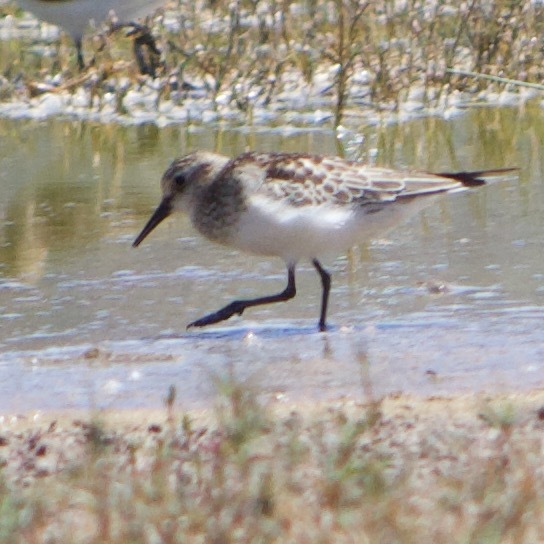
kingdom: Animalia
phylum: Chordata
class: Aves
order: Charadriiformes
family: Scolopacidae
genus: Calidris
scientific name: Calidris bairdii
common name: Baird's sandpiper
